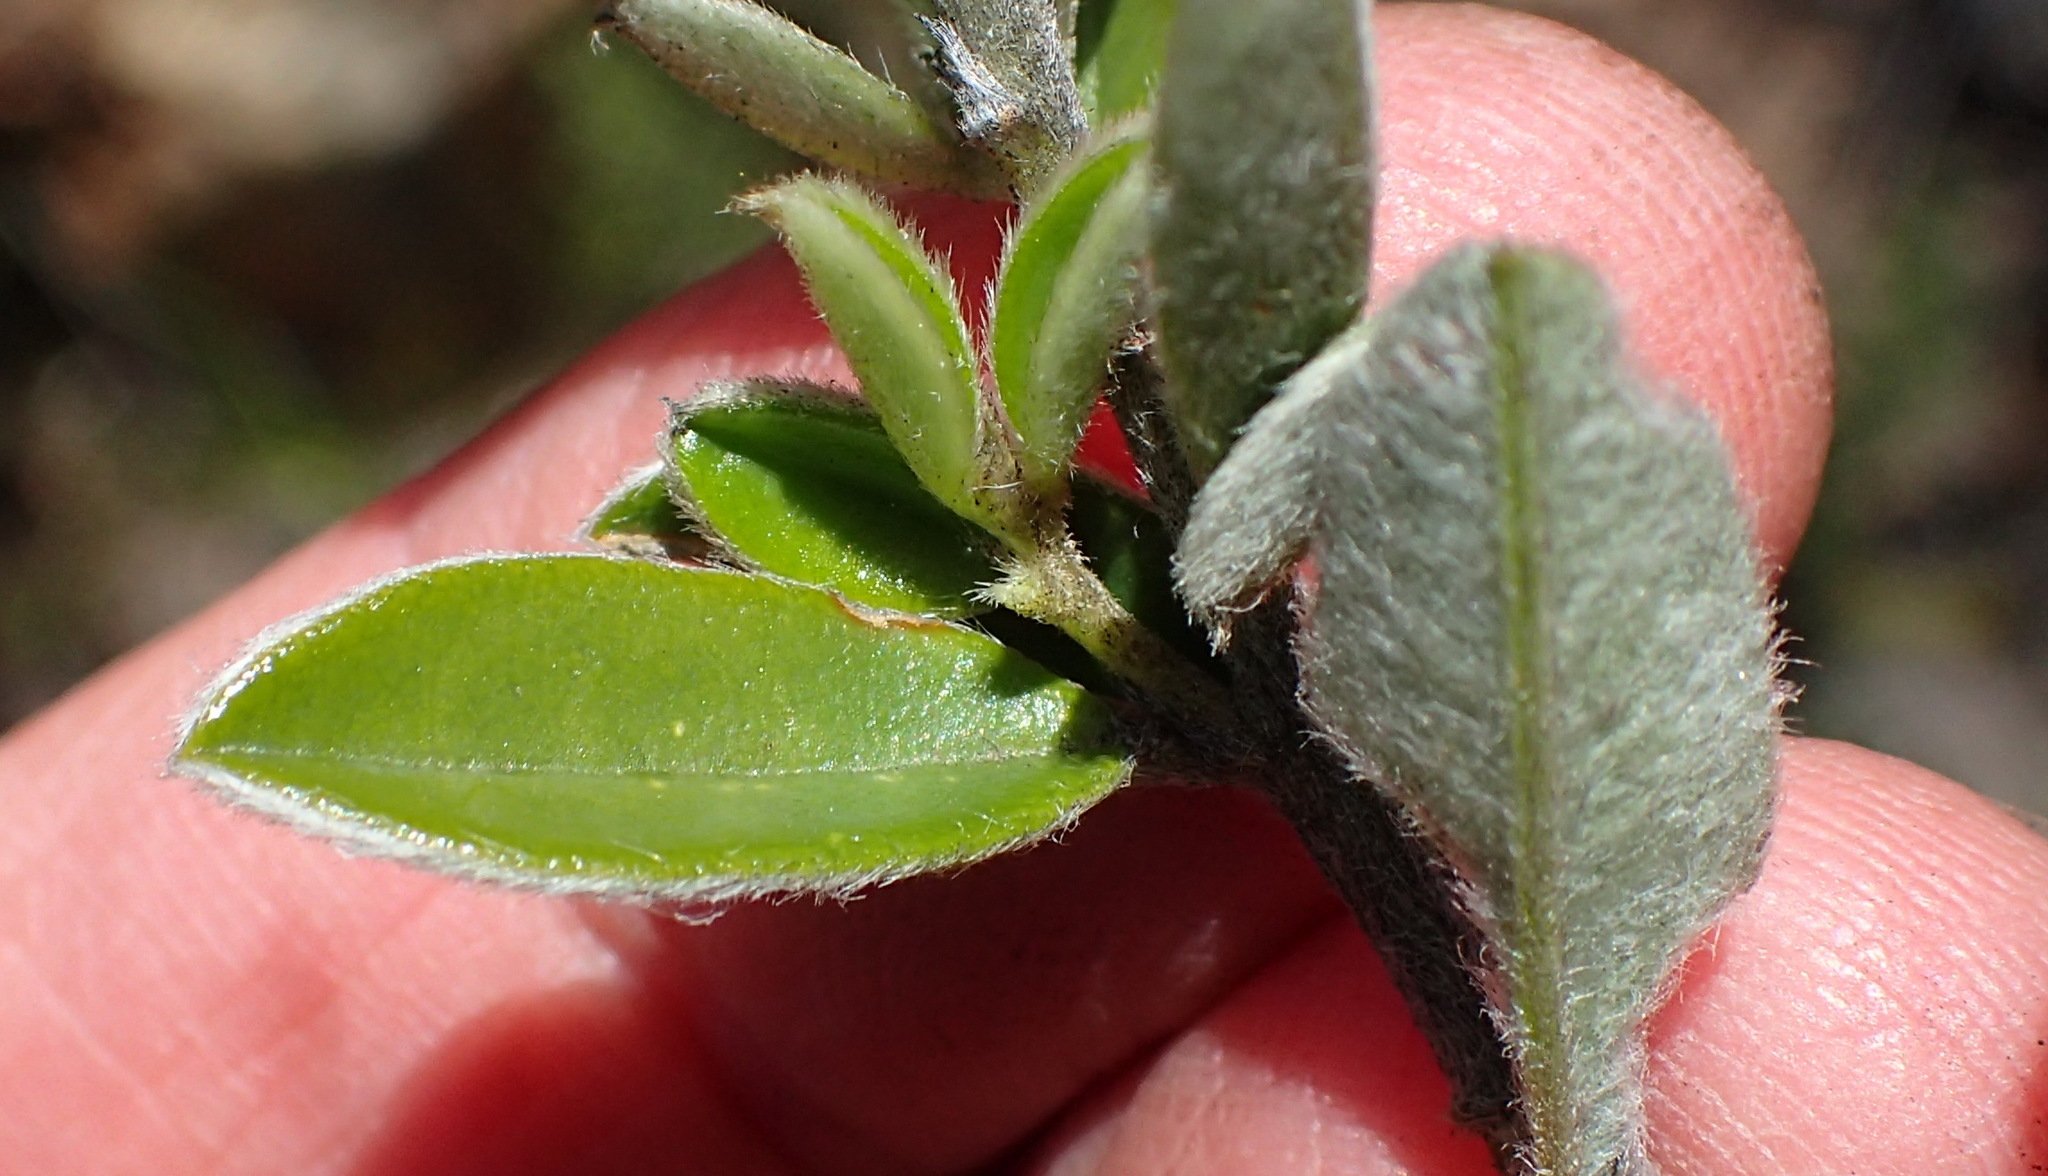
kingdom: Plantae
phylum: Tracheophyta
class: Magnoliopsida
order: Fabales
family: Fabaceae
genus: Podalyria
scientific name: Podalyria buxifolia
